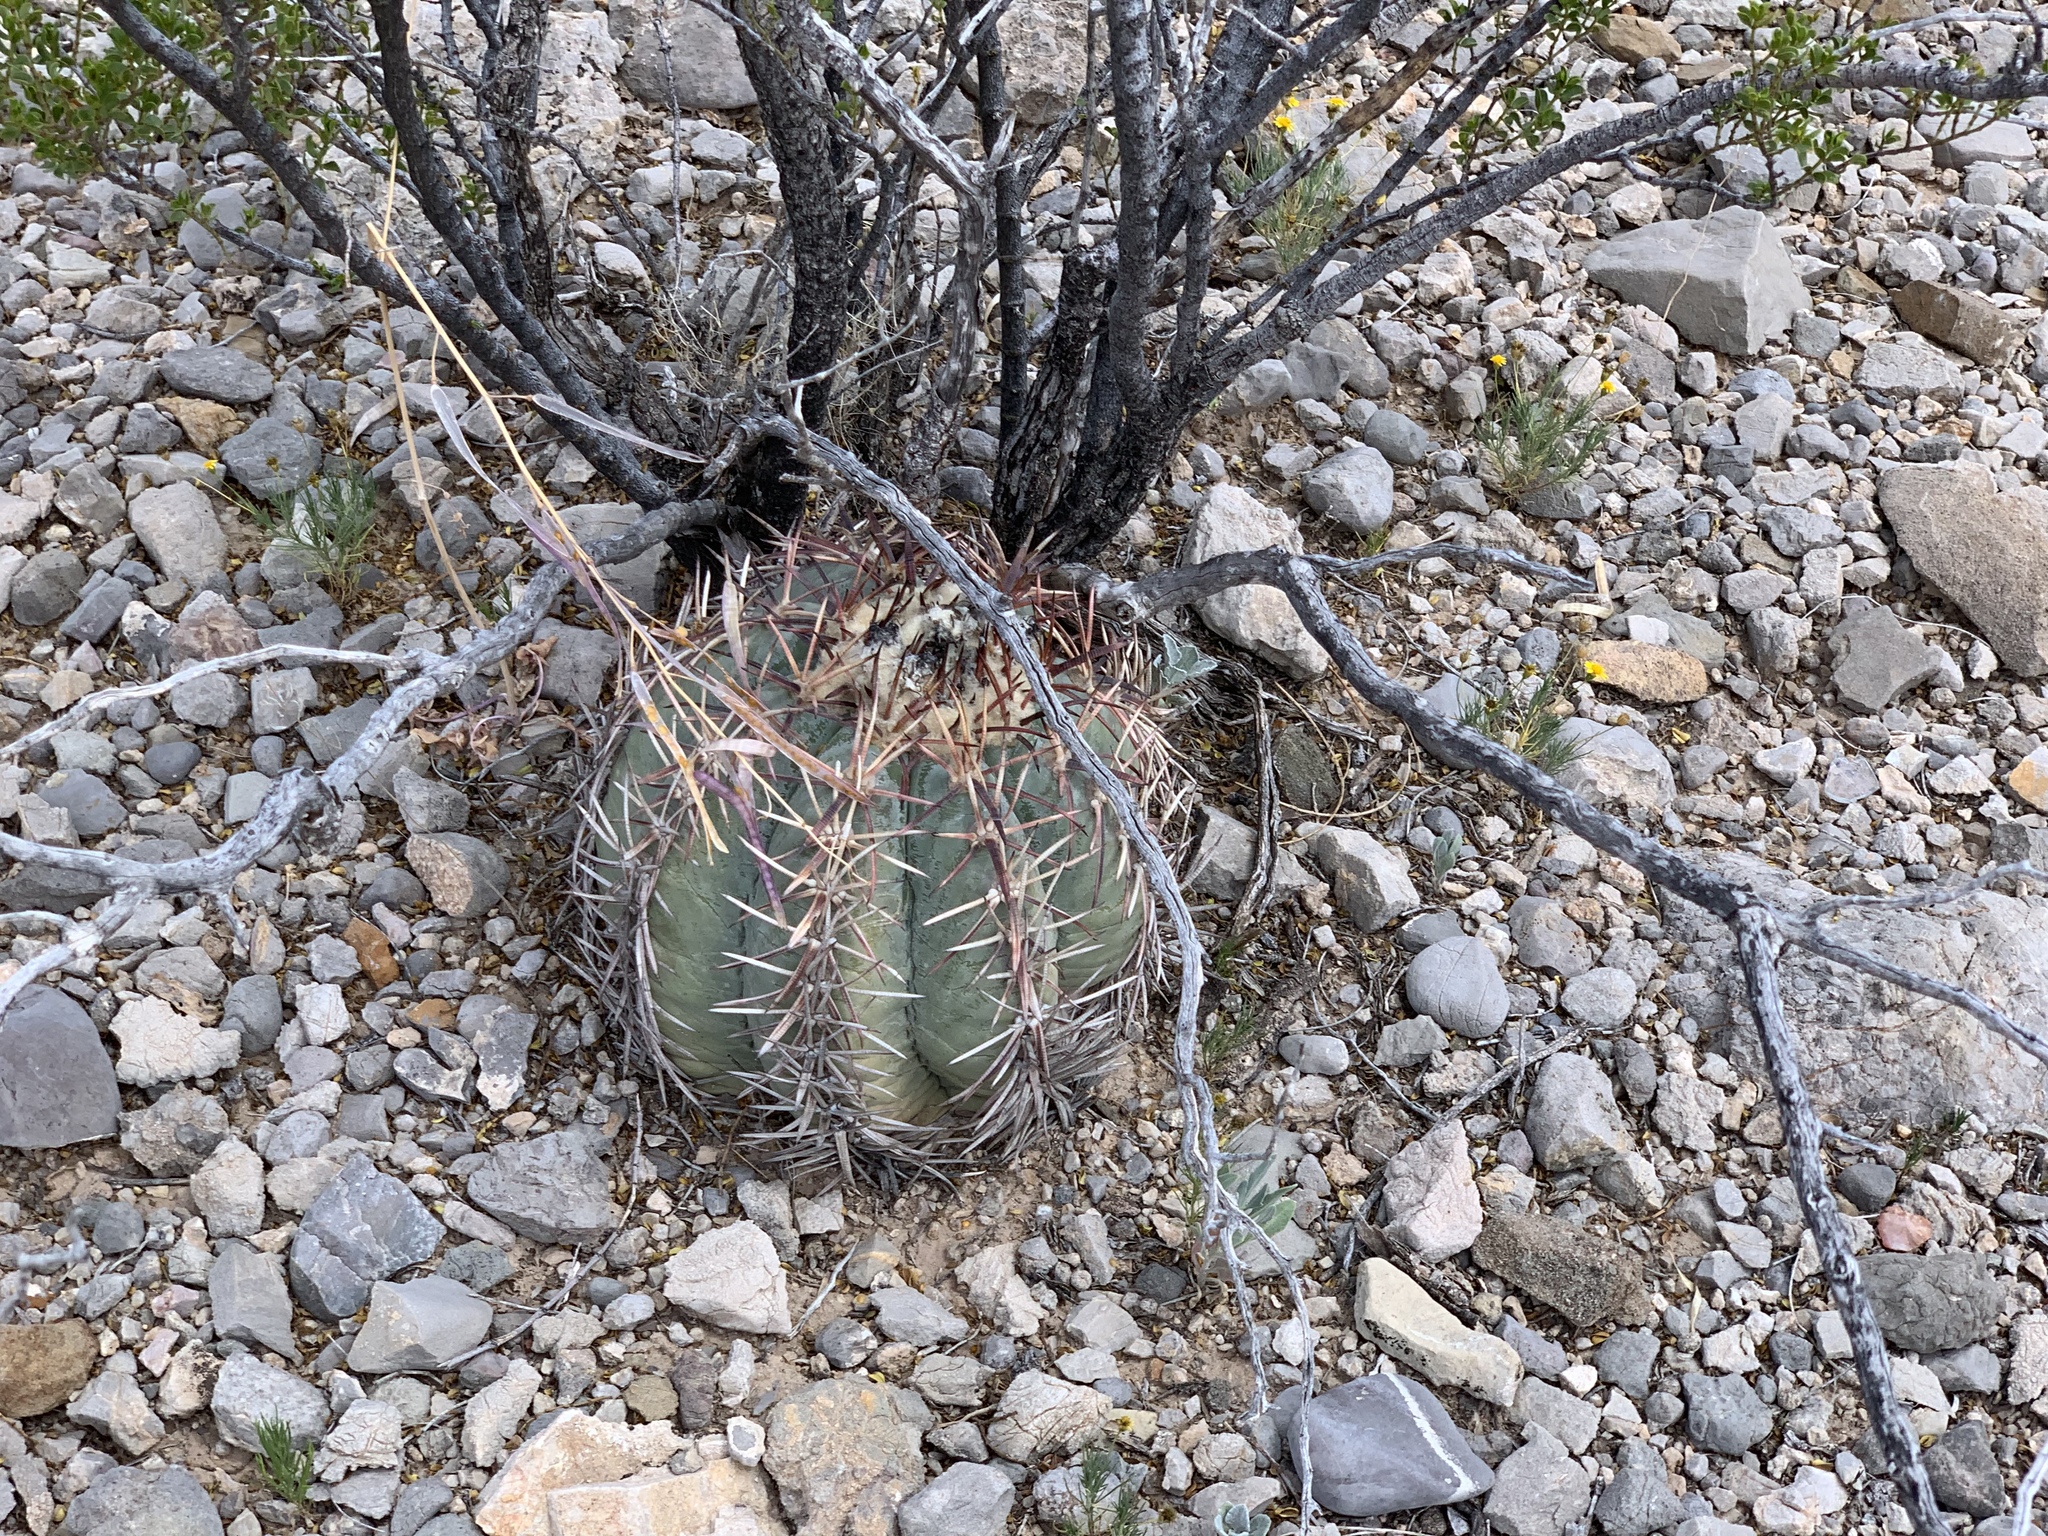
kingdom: Plantae
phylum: Tracheophyta
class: Magnoliopsida
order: Caryophyllales
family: Cactaceae
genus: Echinocactus
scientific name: Echinocactus horizonthalonius
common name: Devilshead
